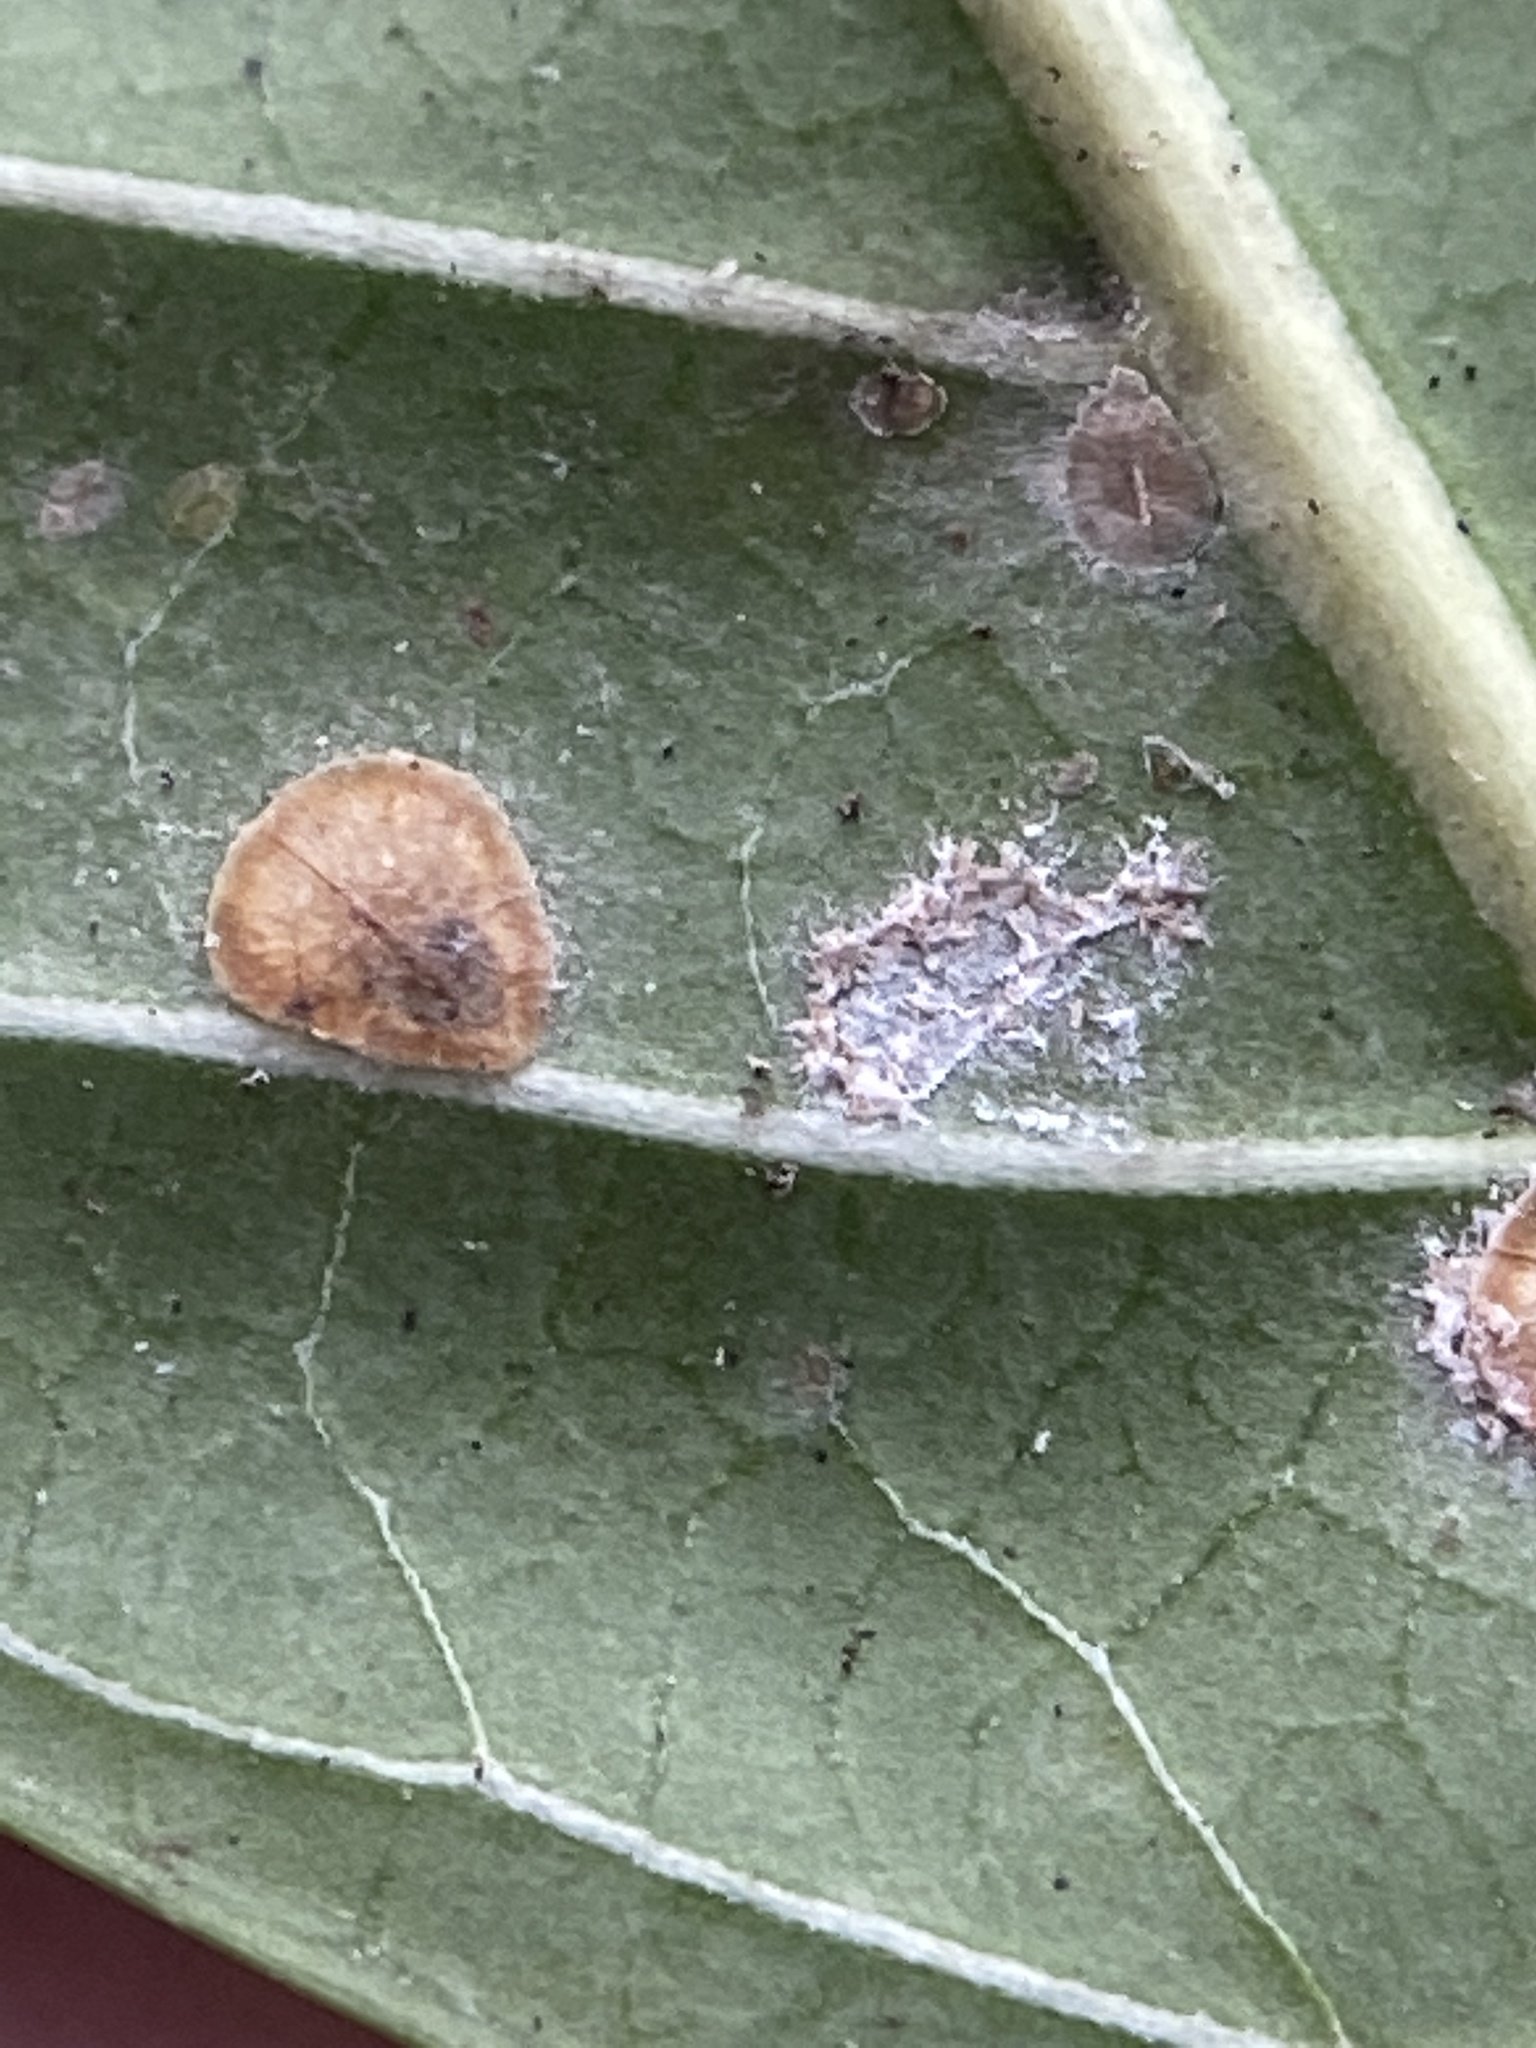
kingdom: Animalia
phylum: Arthropoda
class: Insecta
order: Hemiptera
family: Coccidae
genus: Protopulvinaria
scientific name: Protopulvinaria pyriformis
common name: Pyriform scale
